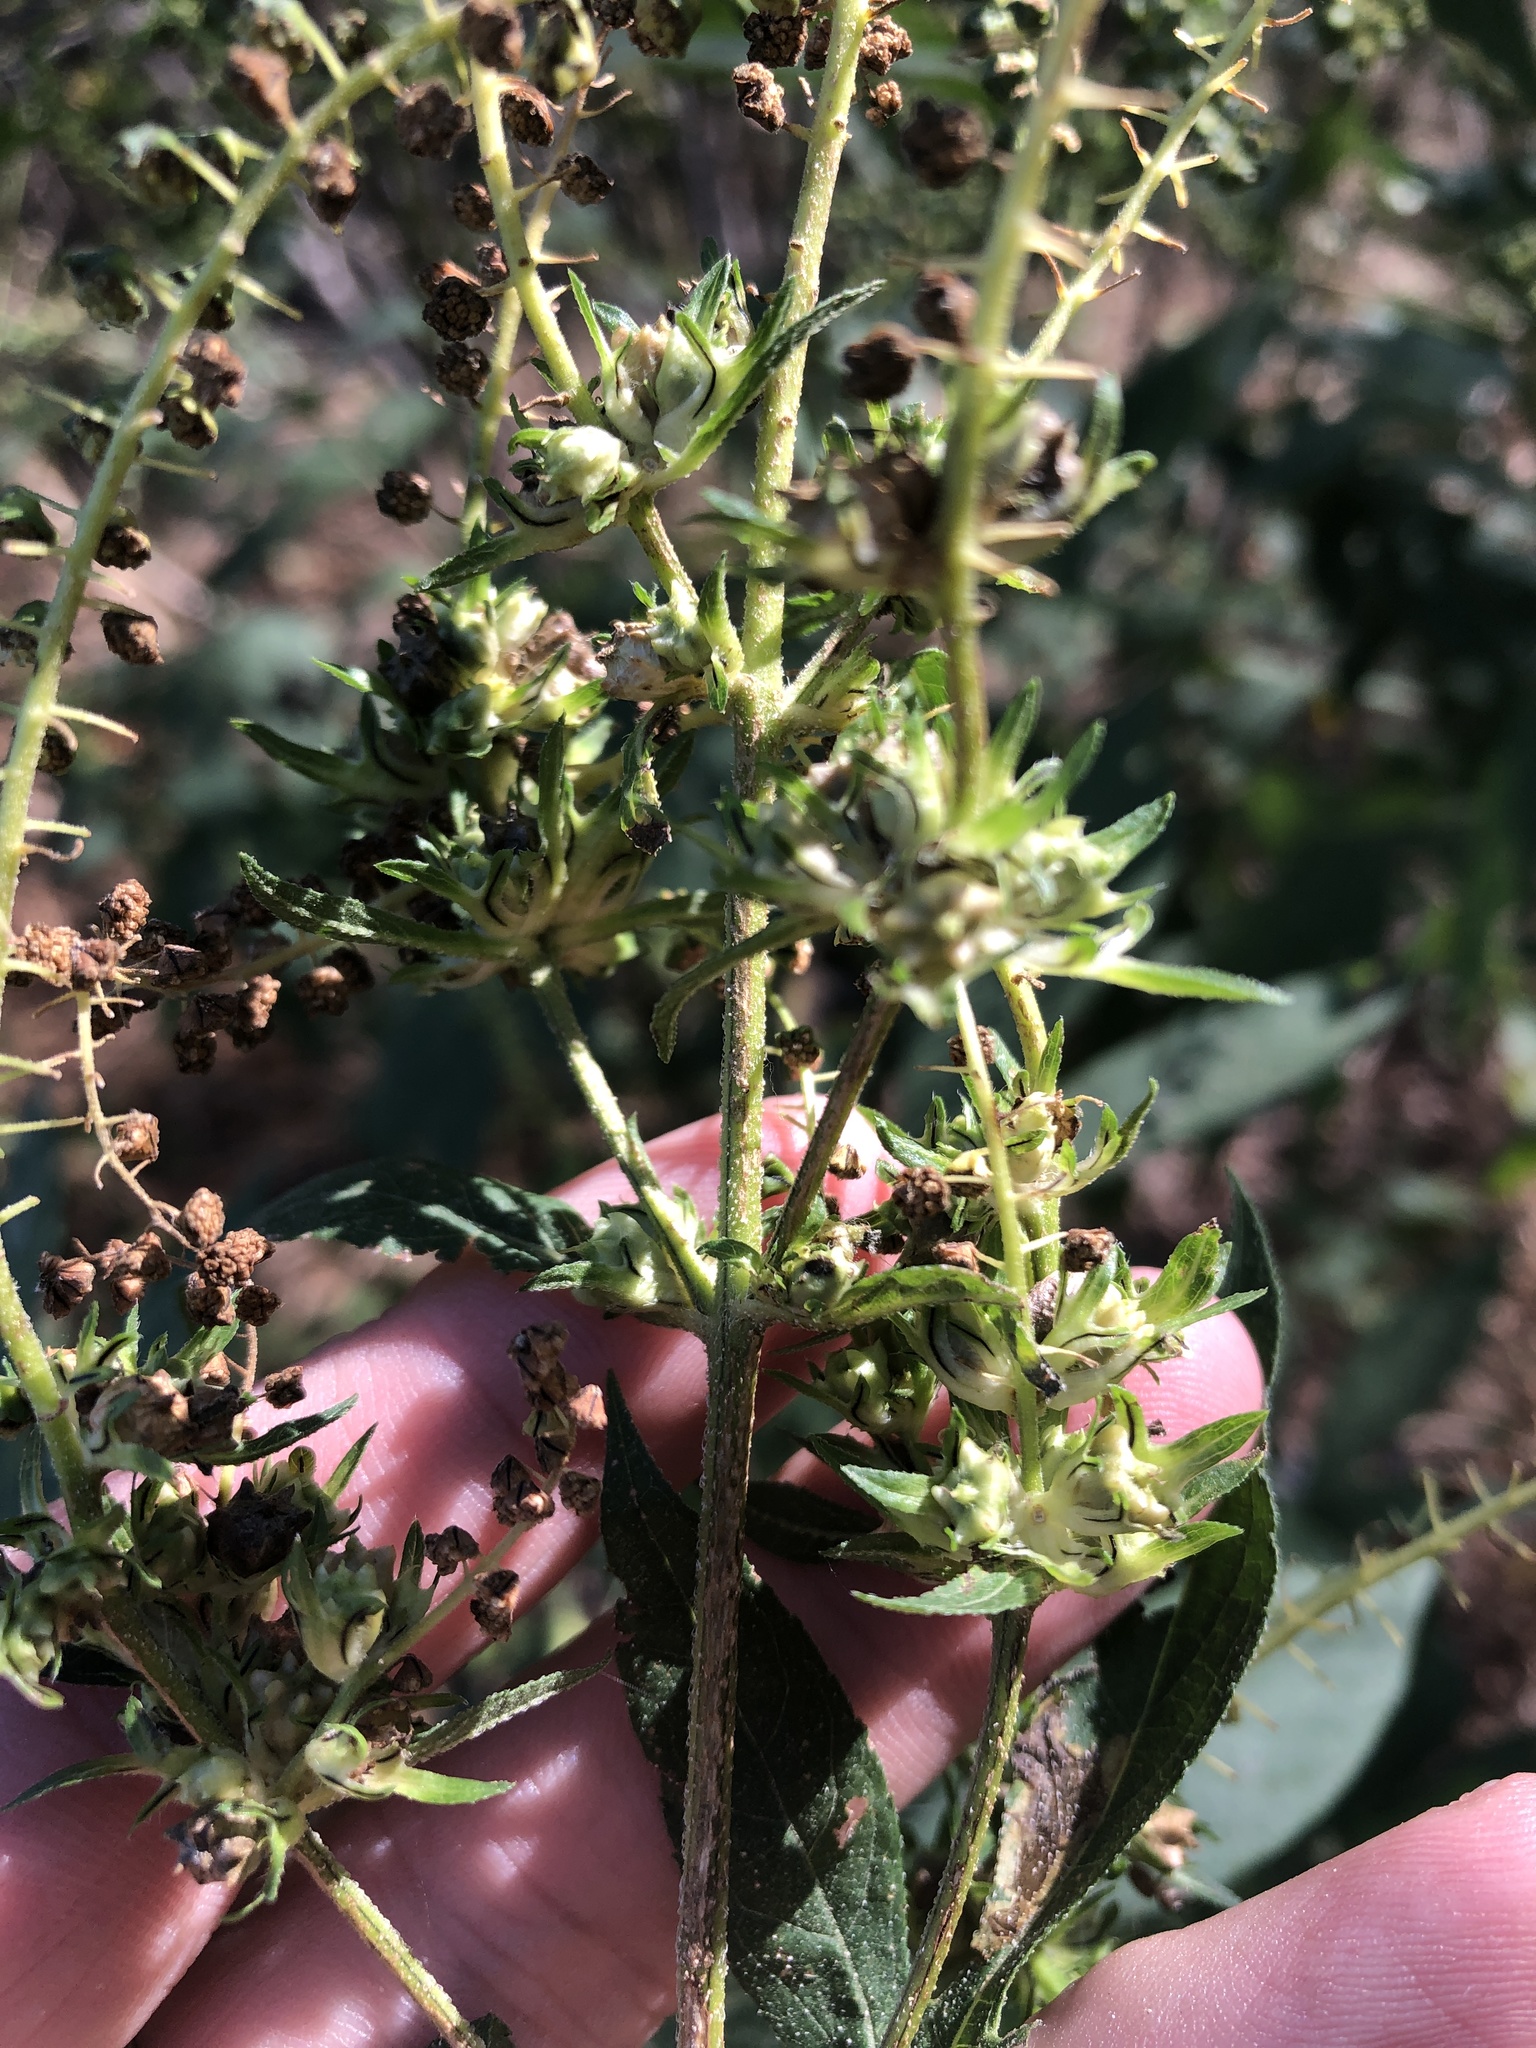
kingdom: Plantae
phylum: Tracheophyta
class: Magnoliopsida
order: Asterales
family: Asteraceae
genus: Ambrosia
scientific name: Ambrosia trifida
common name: Giant ragweed
